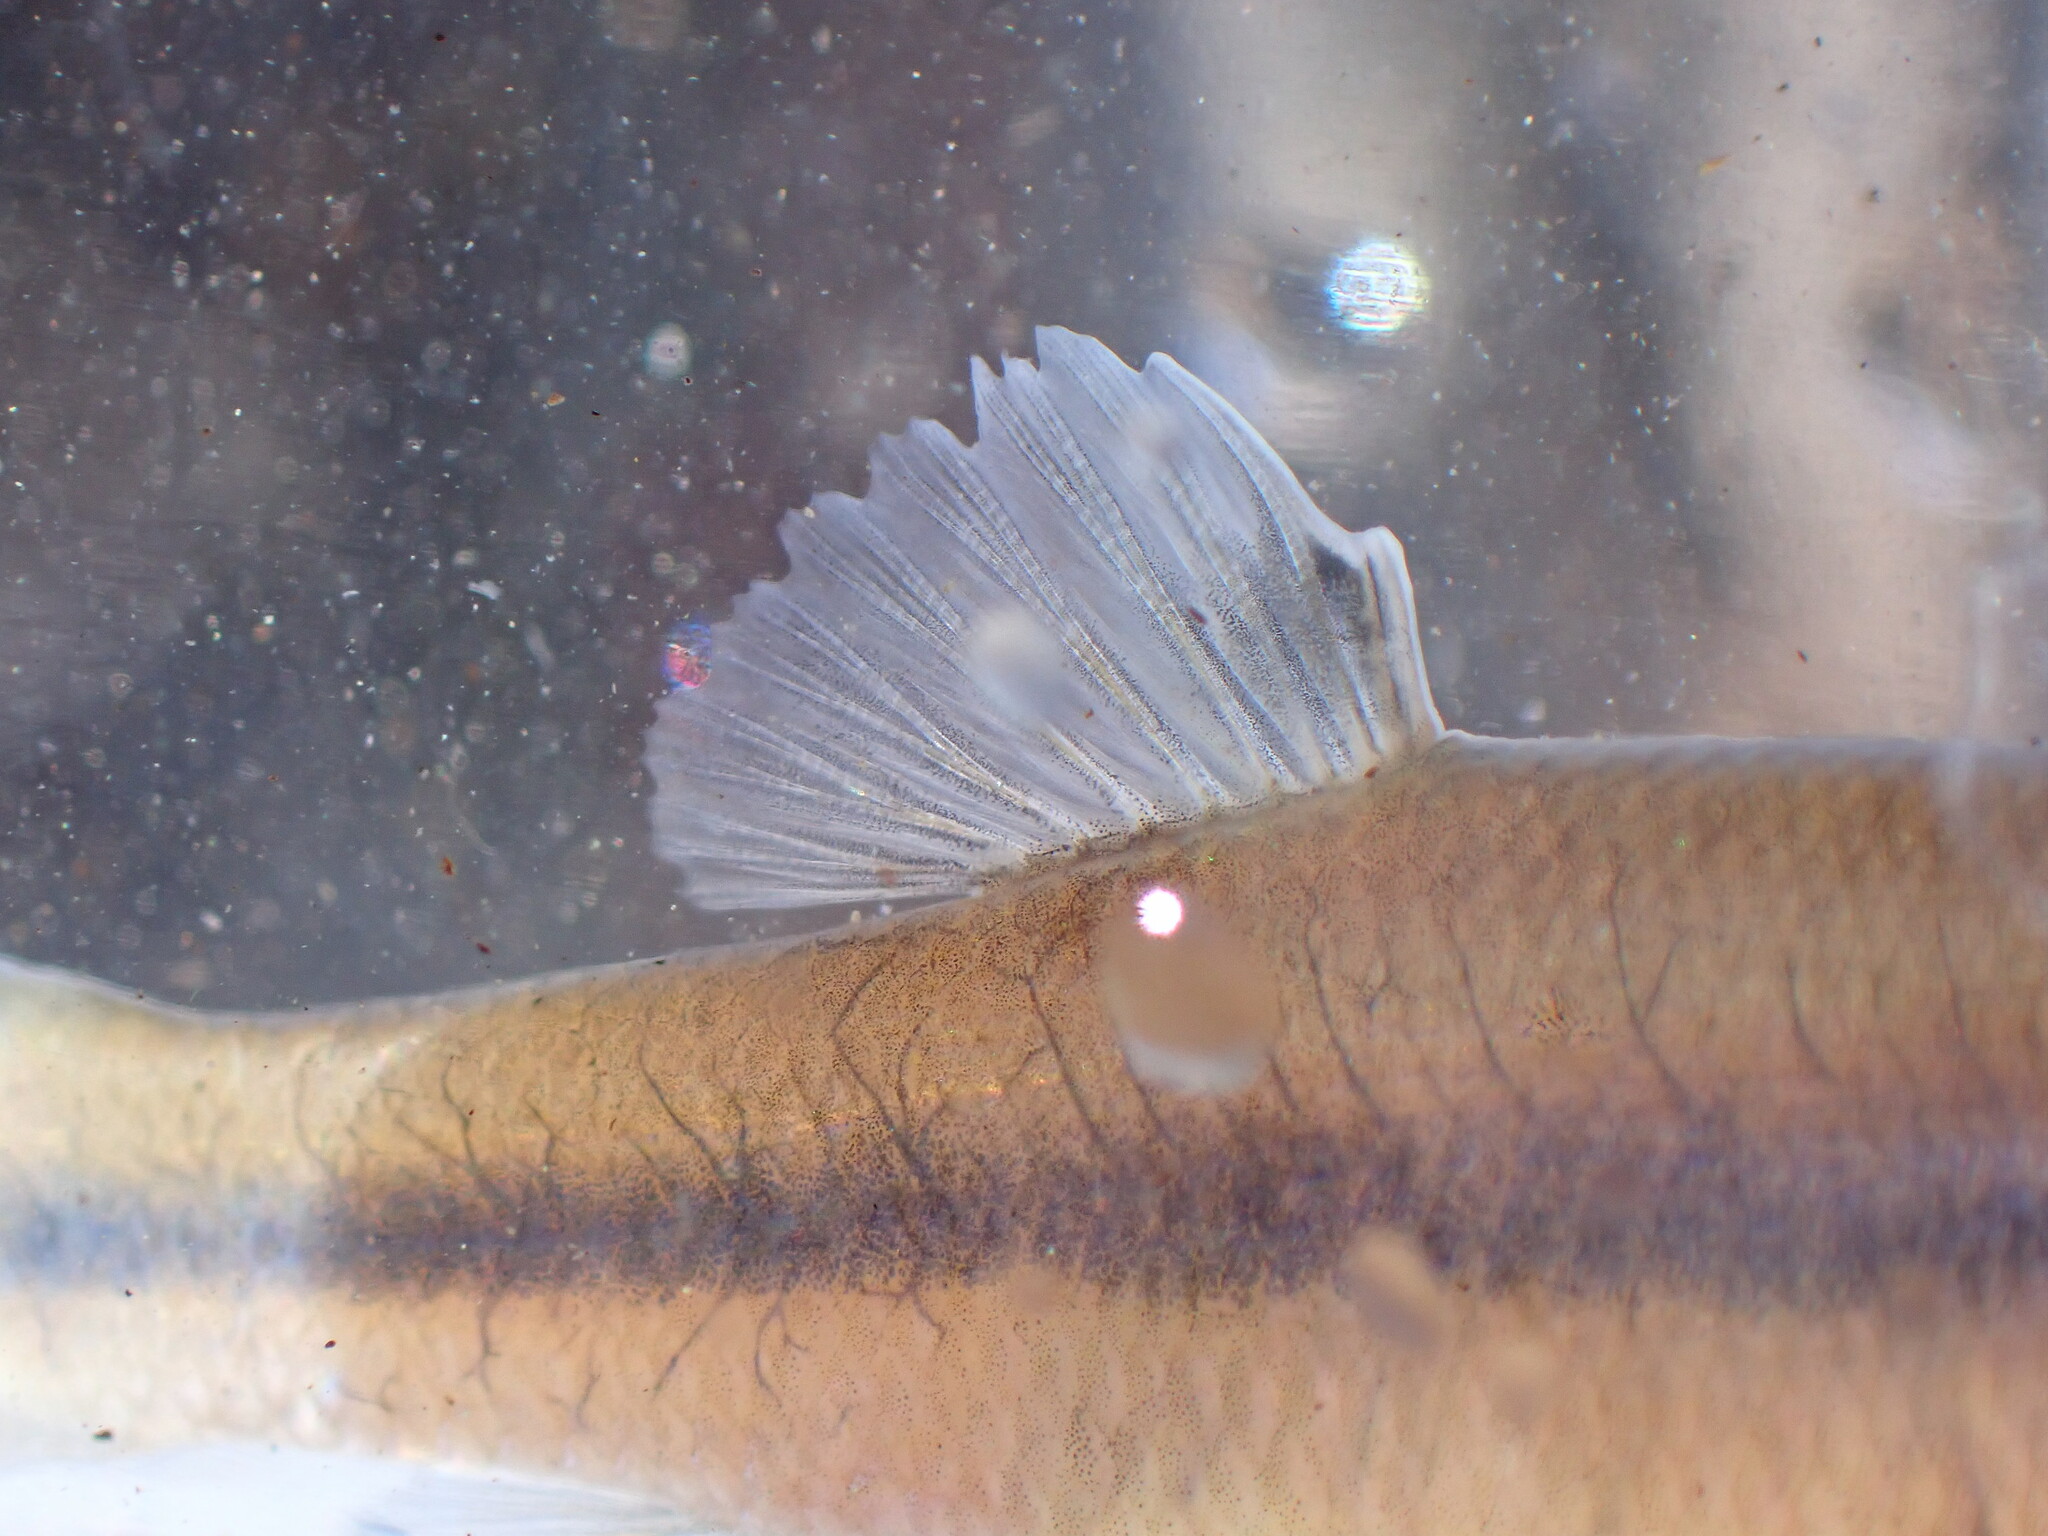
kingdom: Animalia
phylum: Chordata
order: Cypriniformes
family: Cyprinidae
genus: Pimephales
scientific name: Pimephales promelas
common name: Fathead minnow
